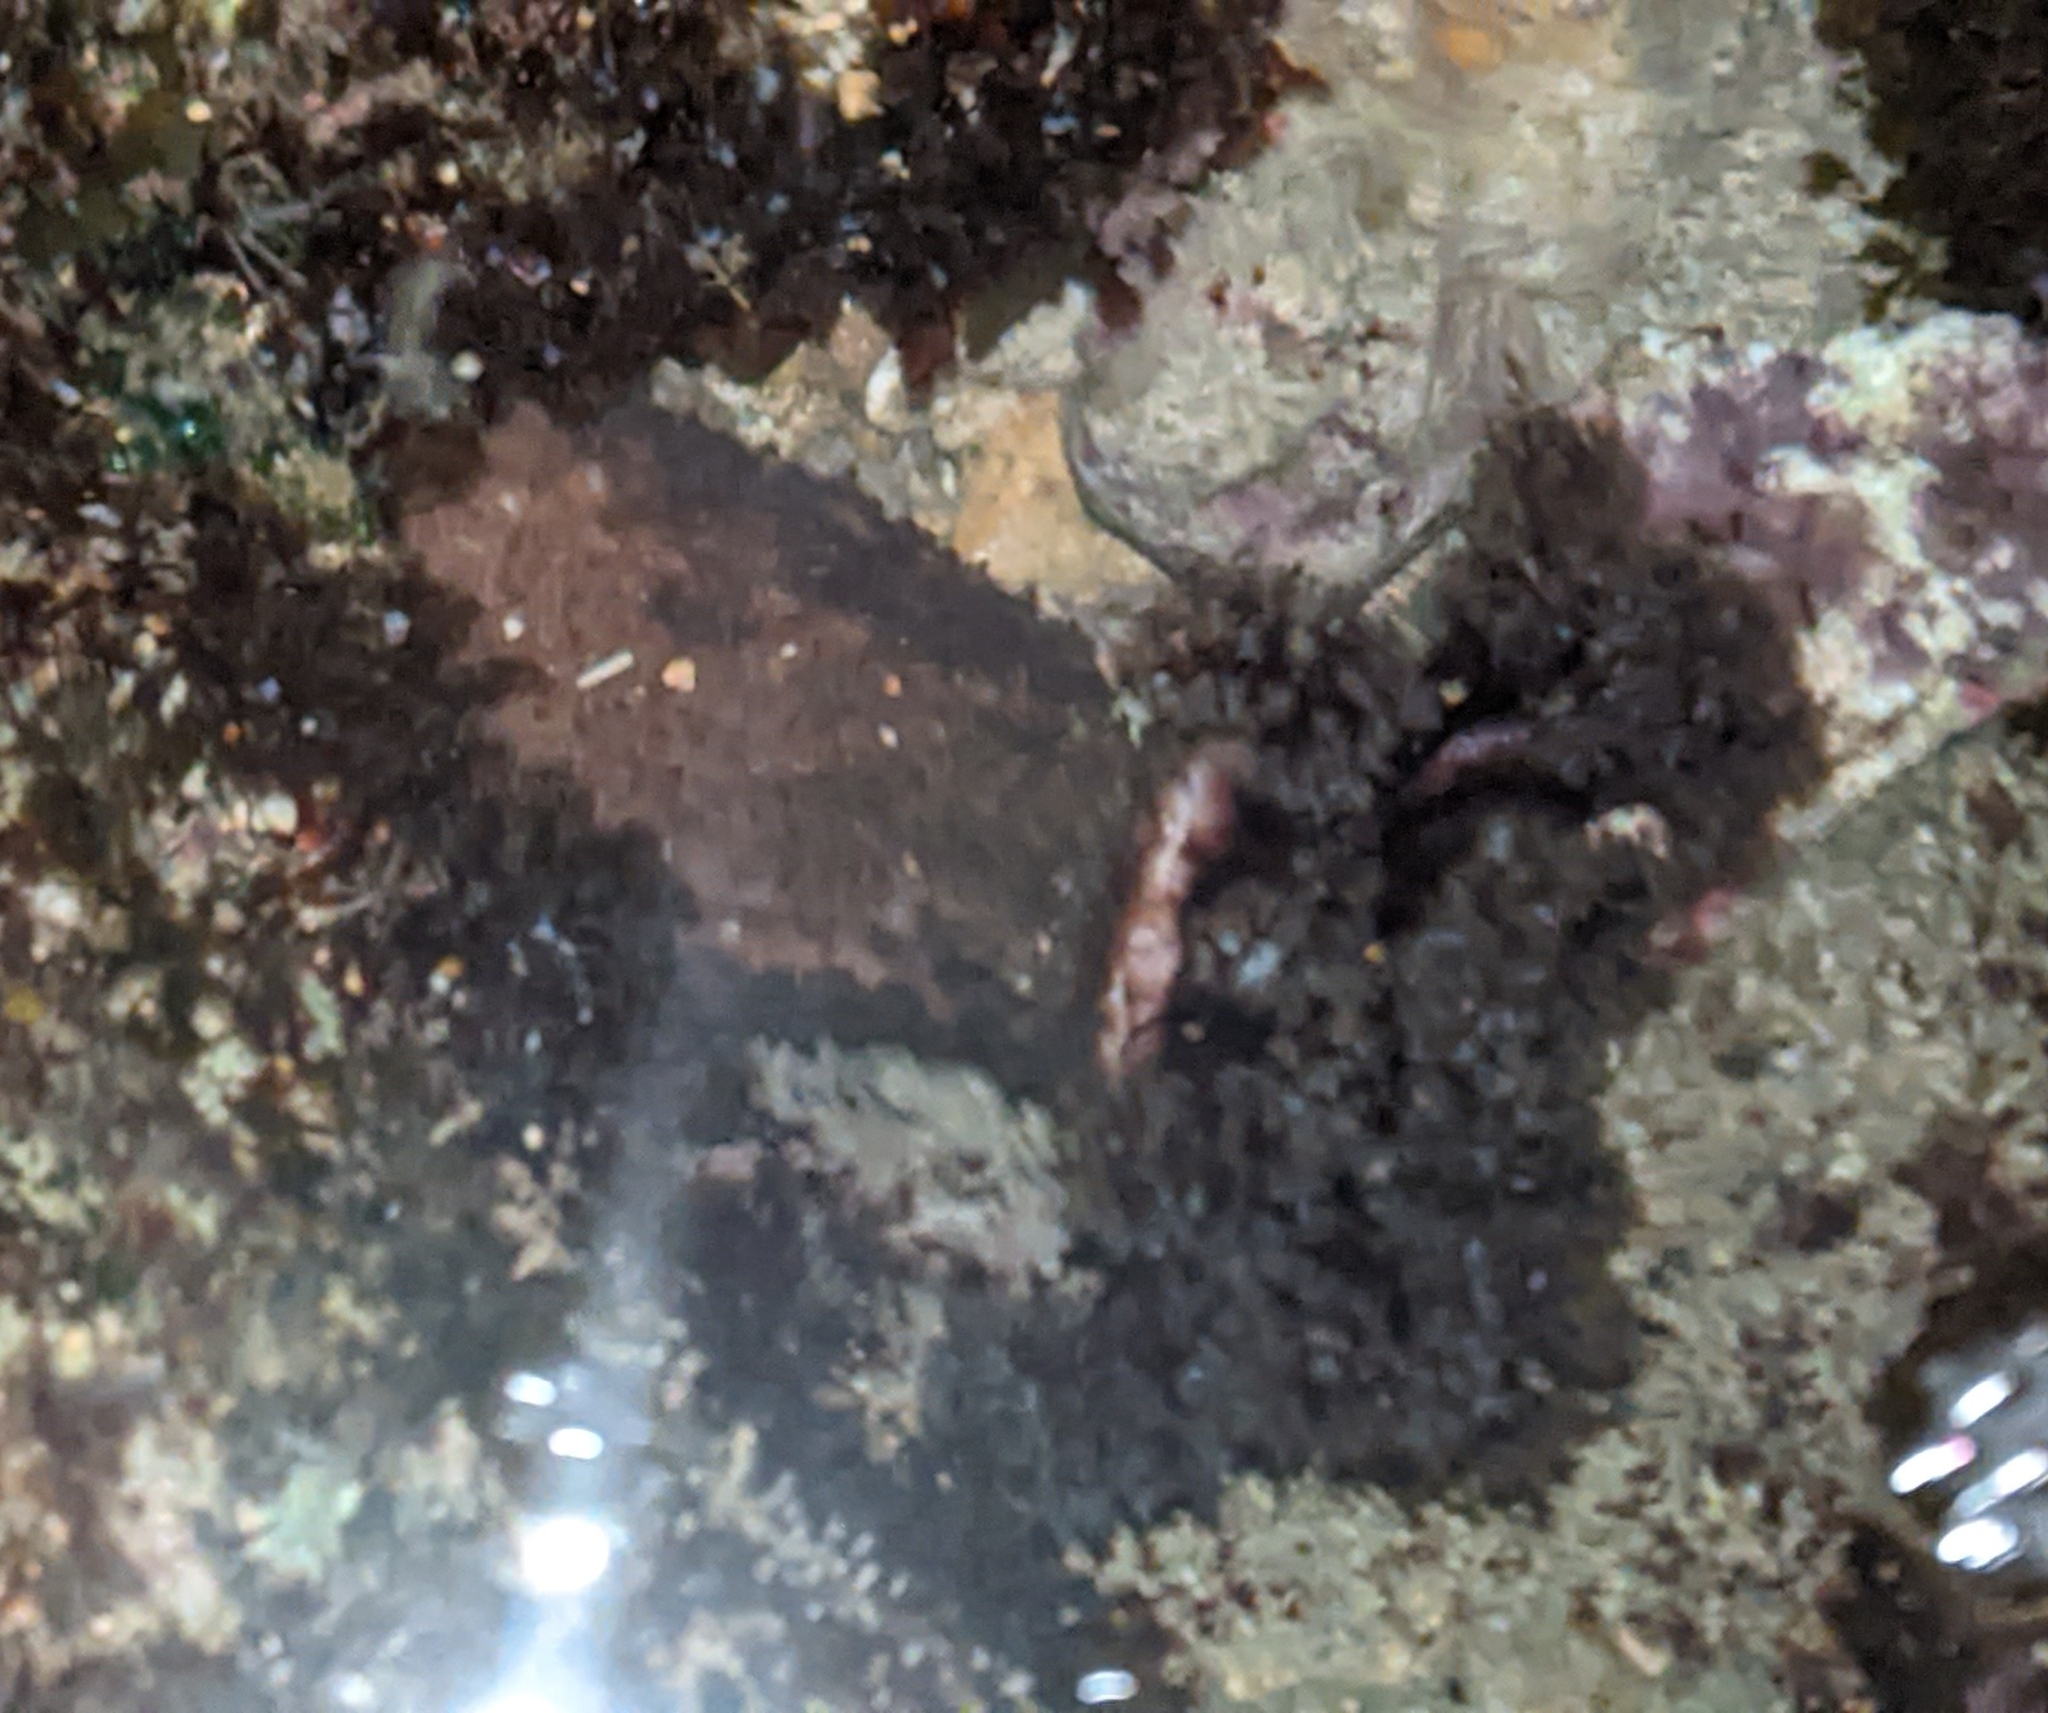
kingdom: Animalia
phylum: Echinodermata
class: Holothuroidea
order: Holothuriida
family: Holothuriidae
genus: Holothuria
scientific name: Holothuria cinerascens
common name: Ashy sea cucumber
